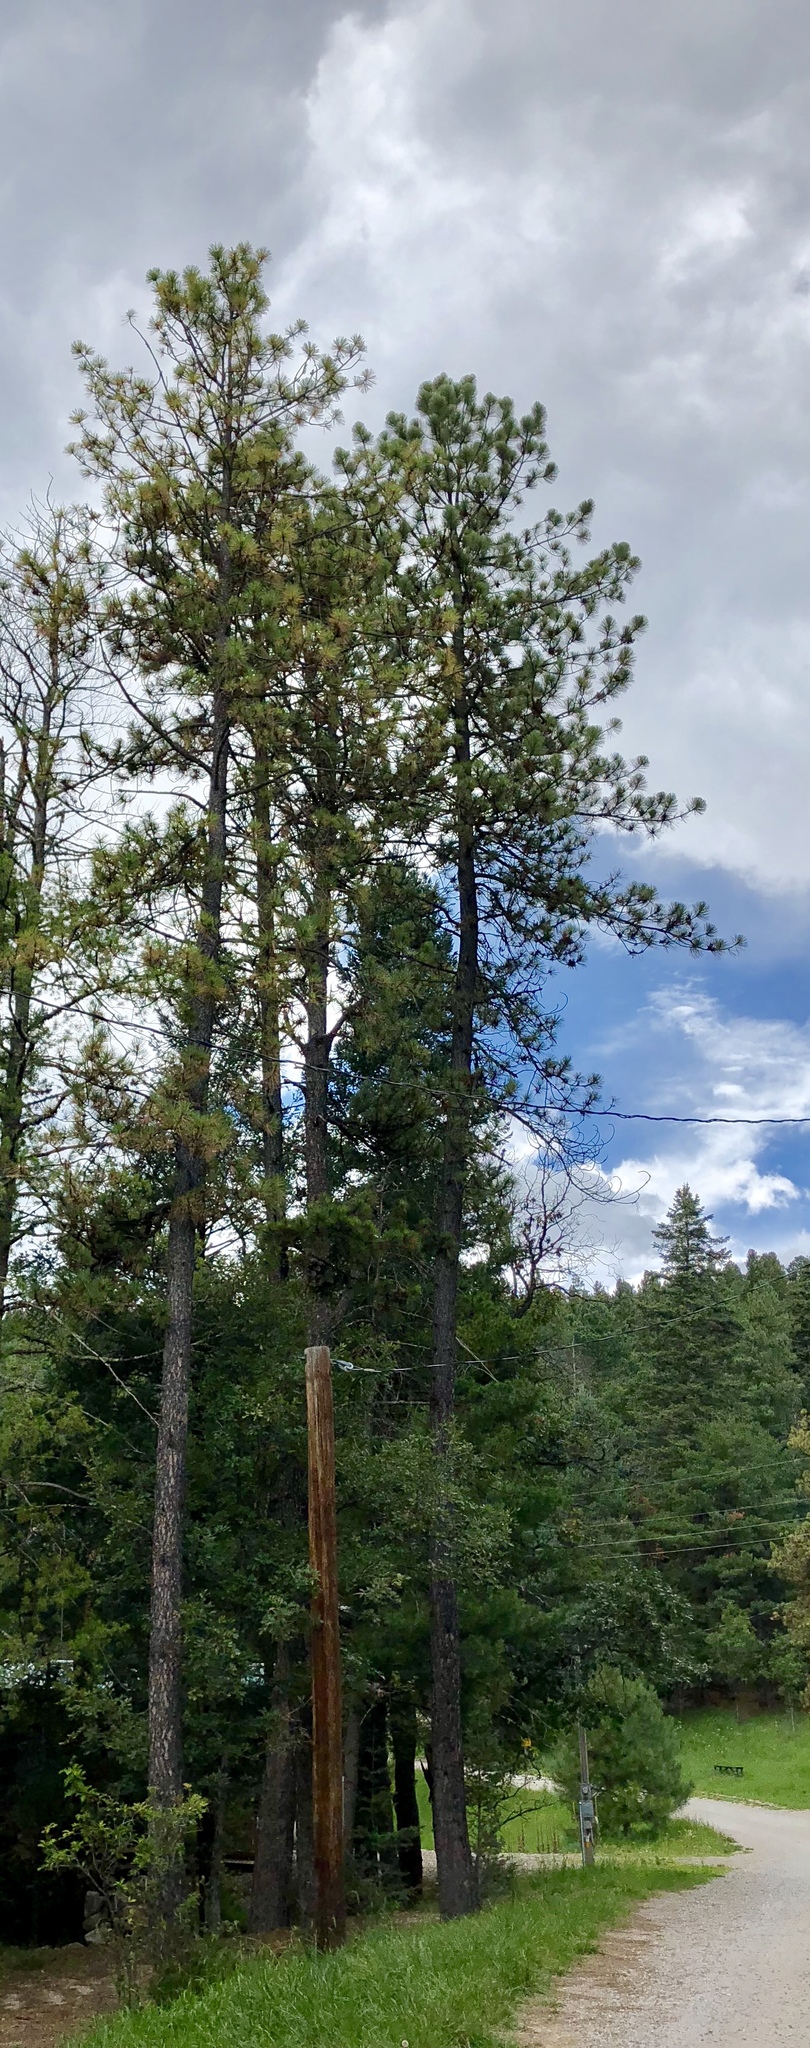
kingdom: Plantae
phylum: Tracheophyta
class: Pinopsida
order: Pinales
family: Pinaceae
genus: Pinus
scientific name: Pinus ponderosa
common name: Western yellow-pine
